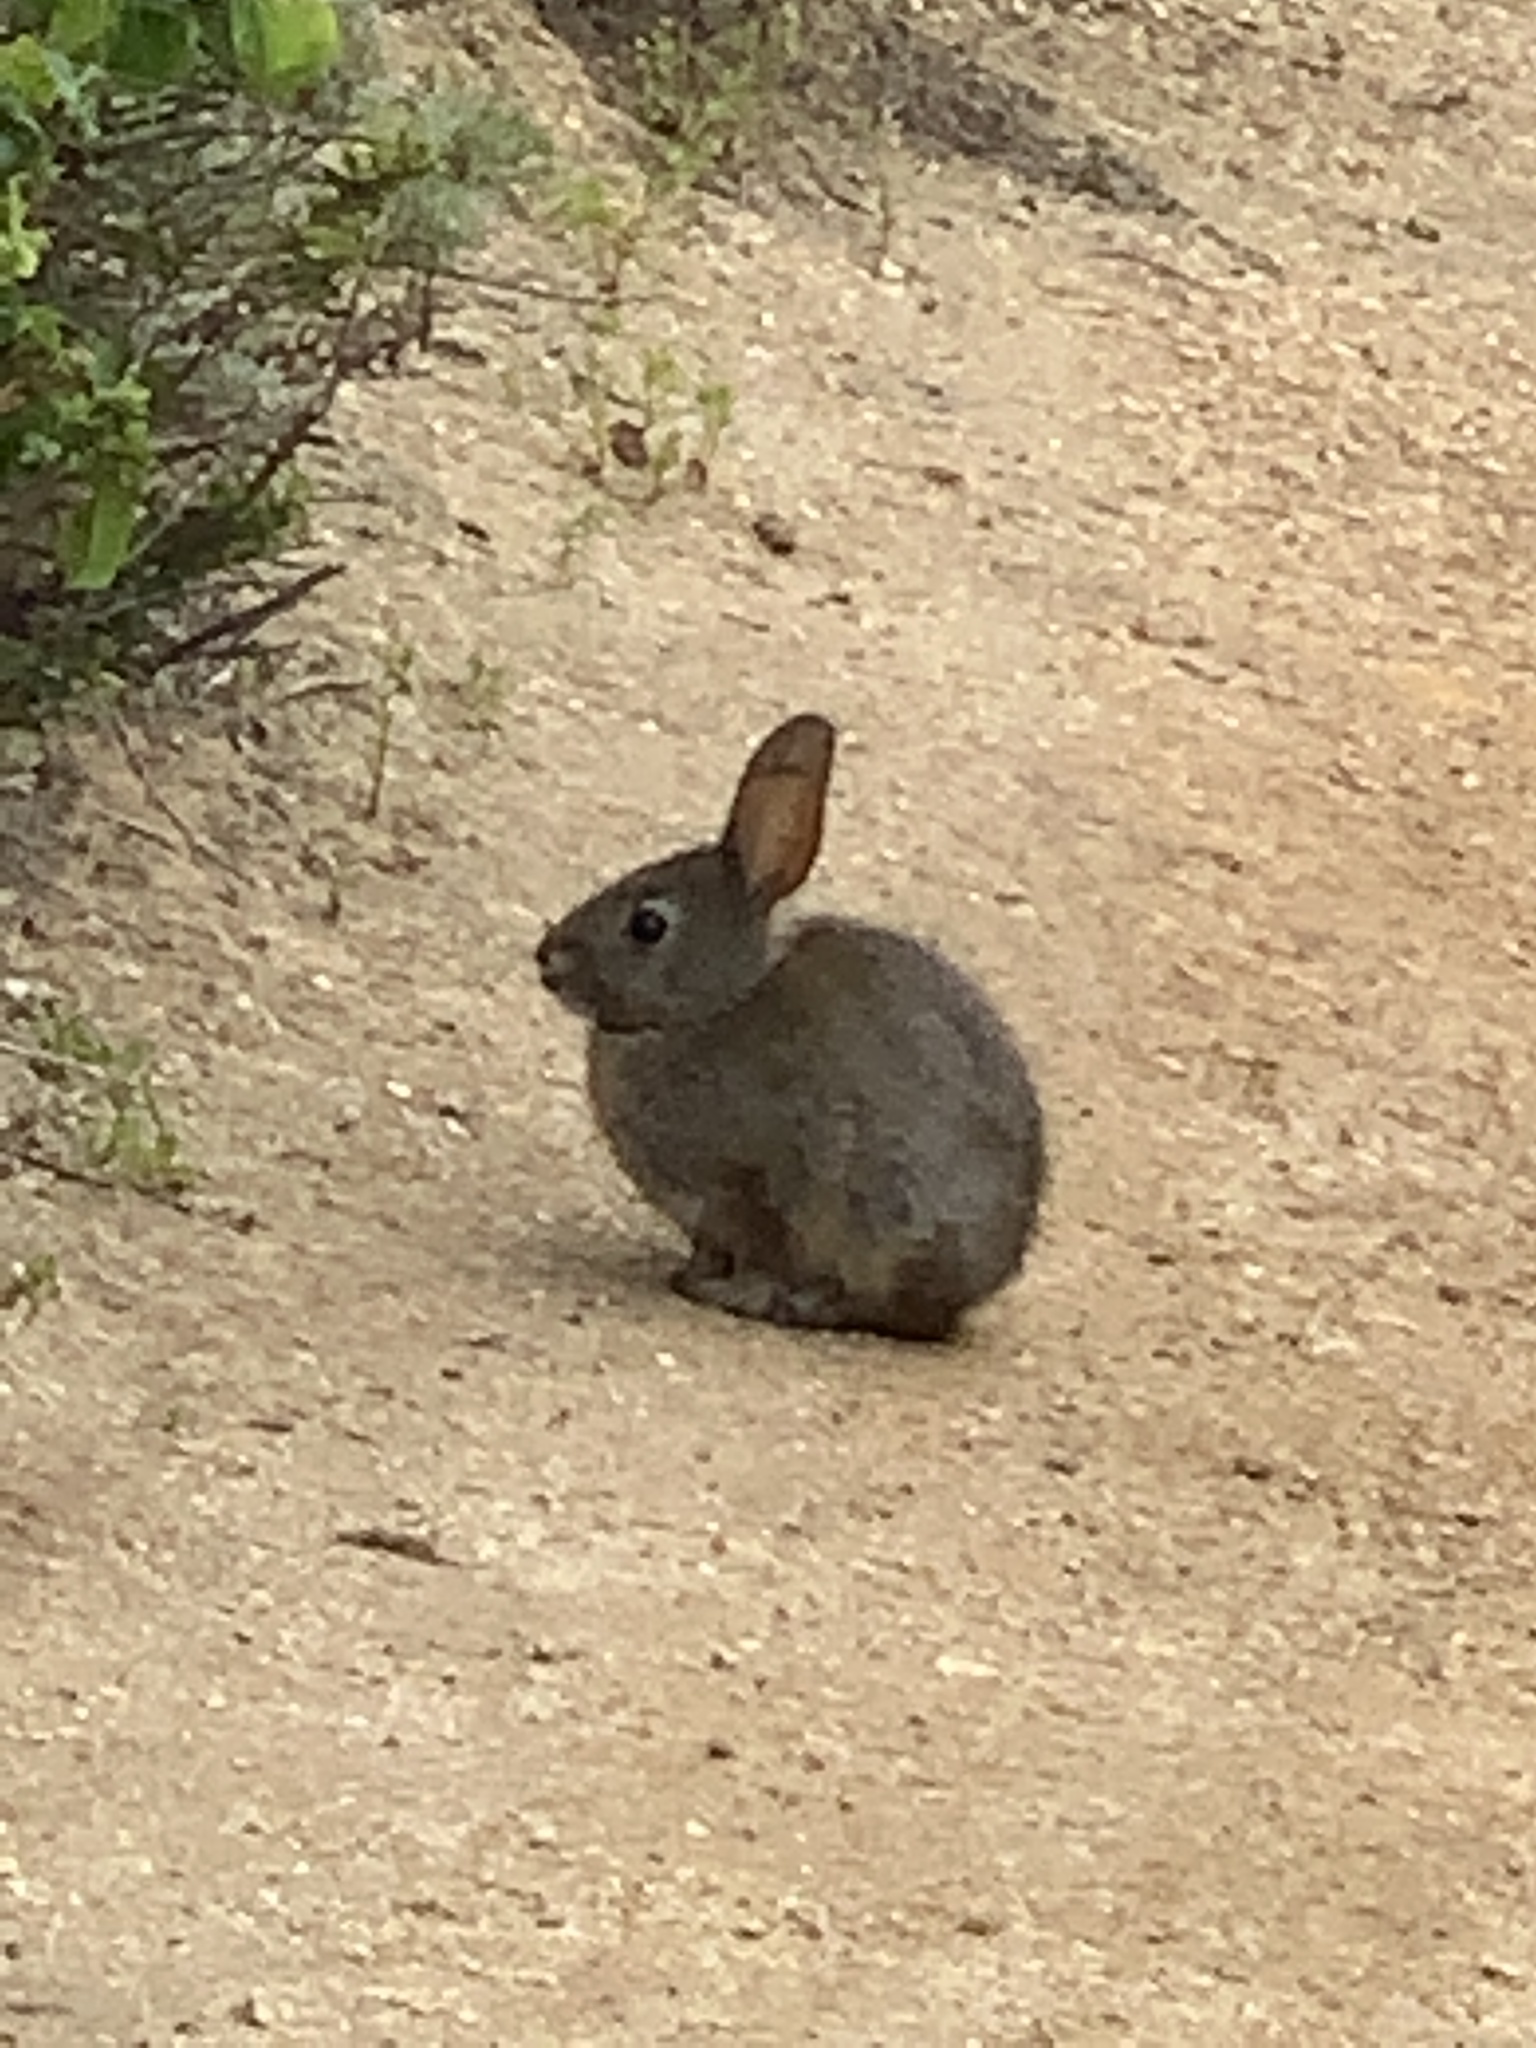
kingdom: Animalia
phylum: Chordata
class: Mammalia
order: Lagomorpha
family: Leporidae
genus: Sylvilagus
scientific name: Sylvilagus bachmani
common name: Brush rabbit
